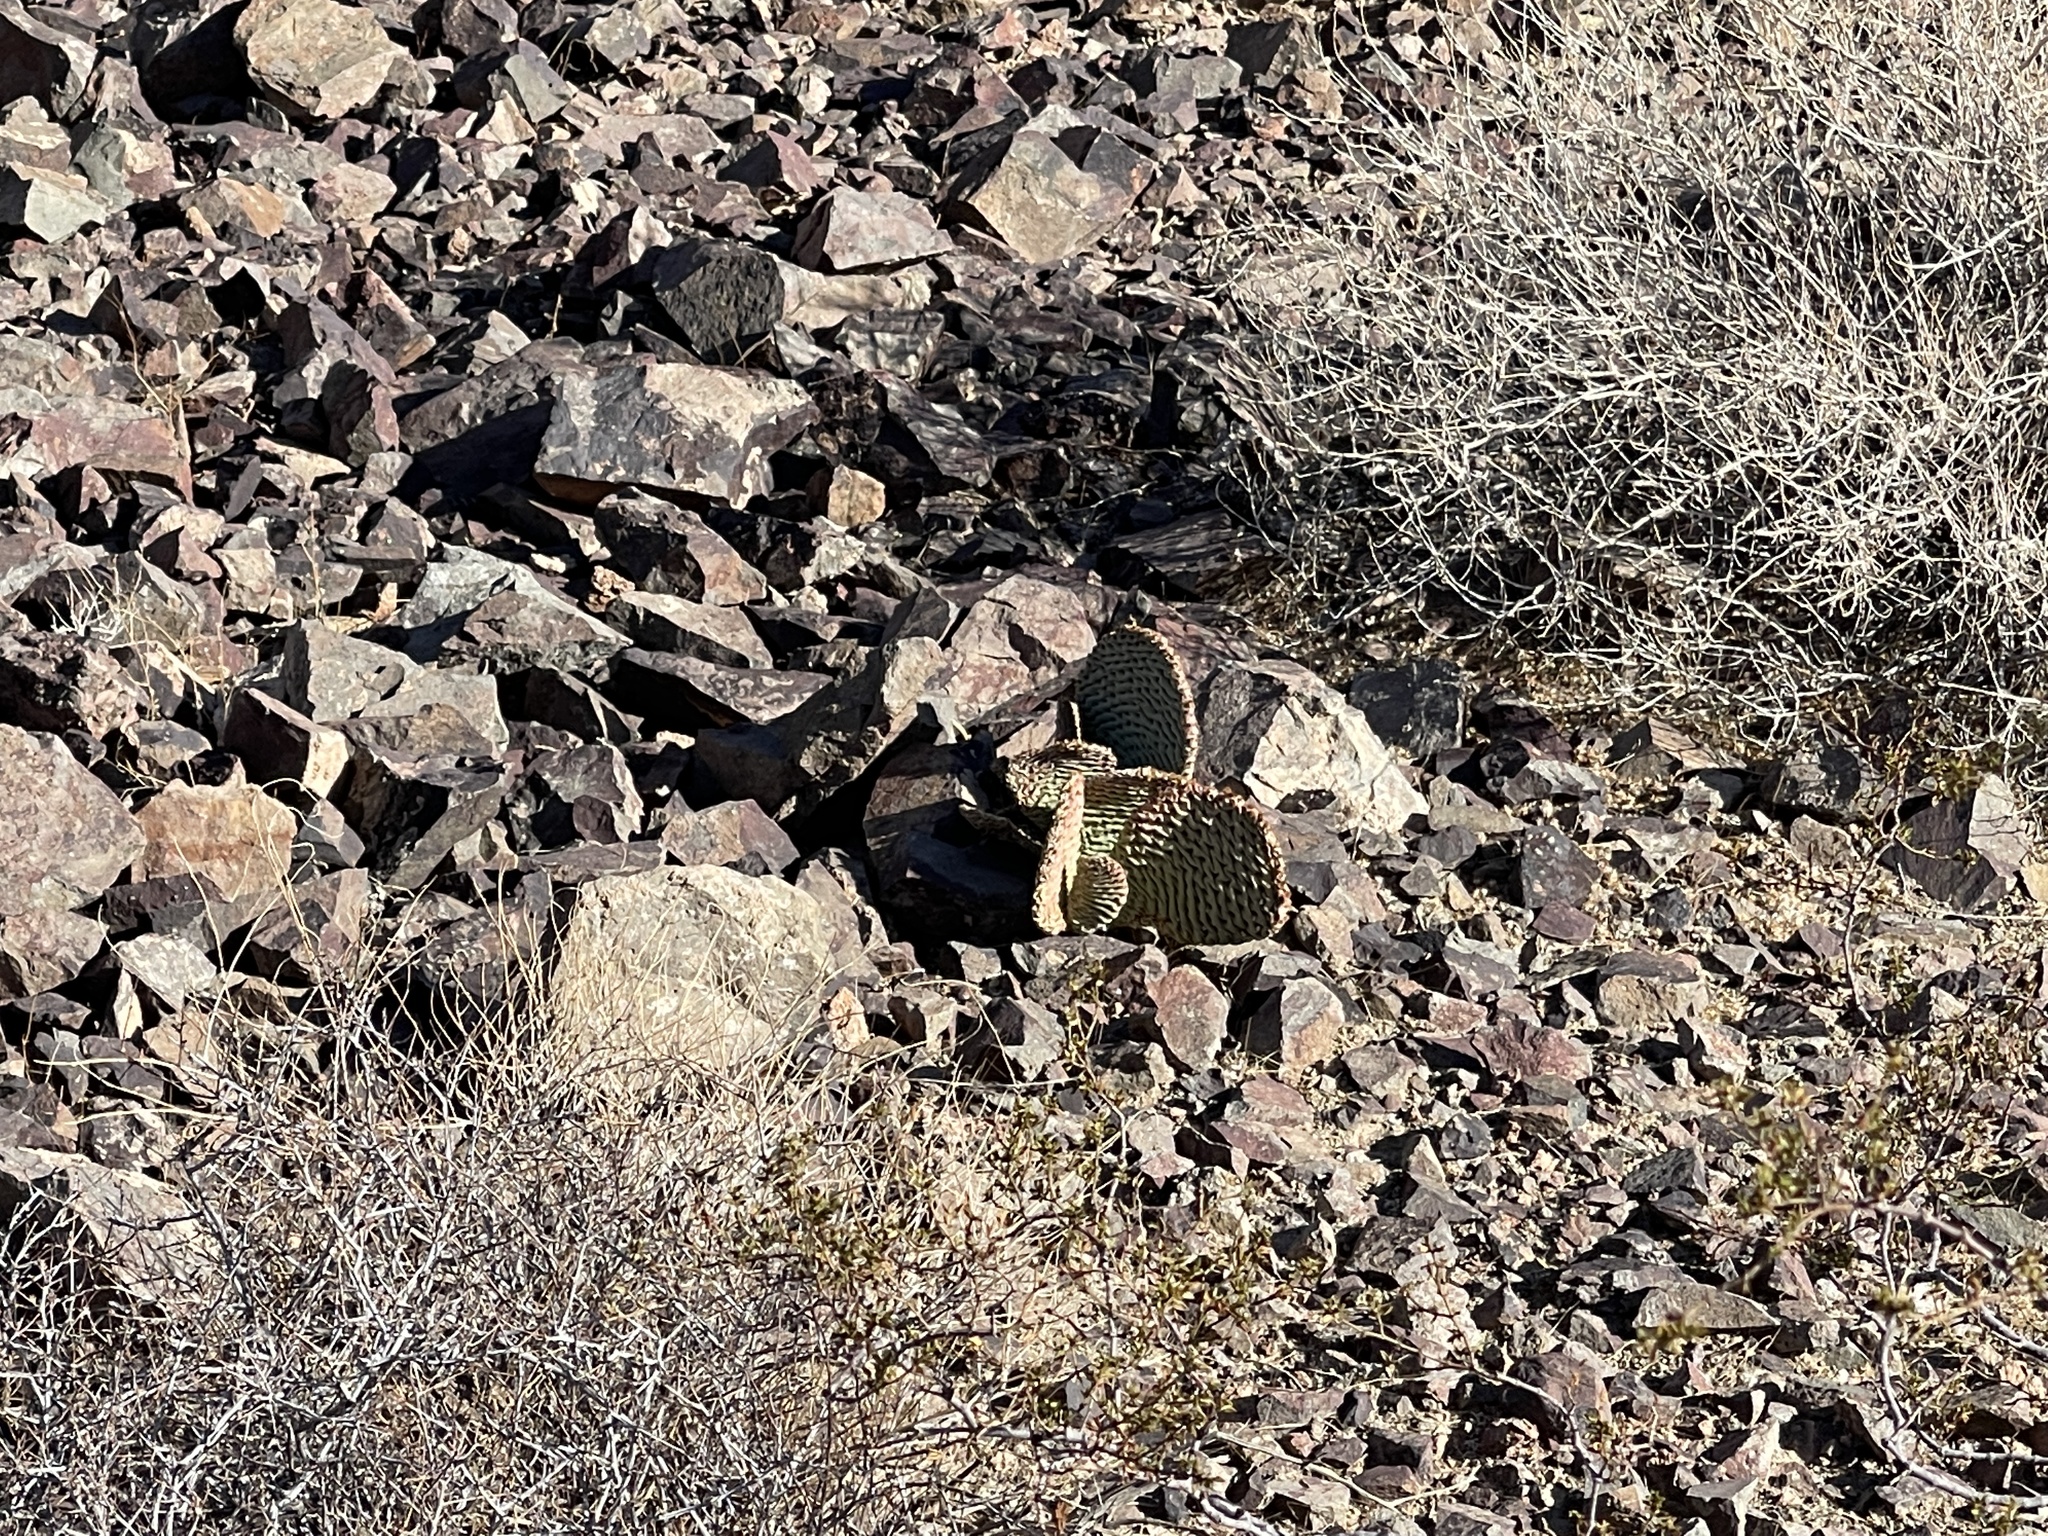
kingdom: Plantae
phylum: Tracheophyta
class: Magnoliopsida
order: Caryophyllales
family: Cactaceae
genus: Opuntia
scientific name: Opuntia basilaris
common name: Beavertail prickly-pear
